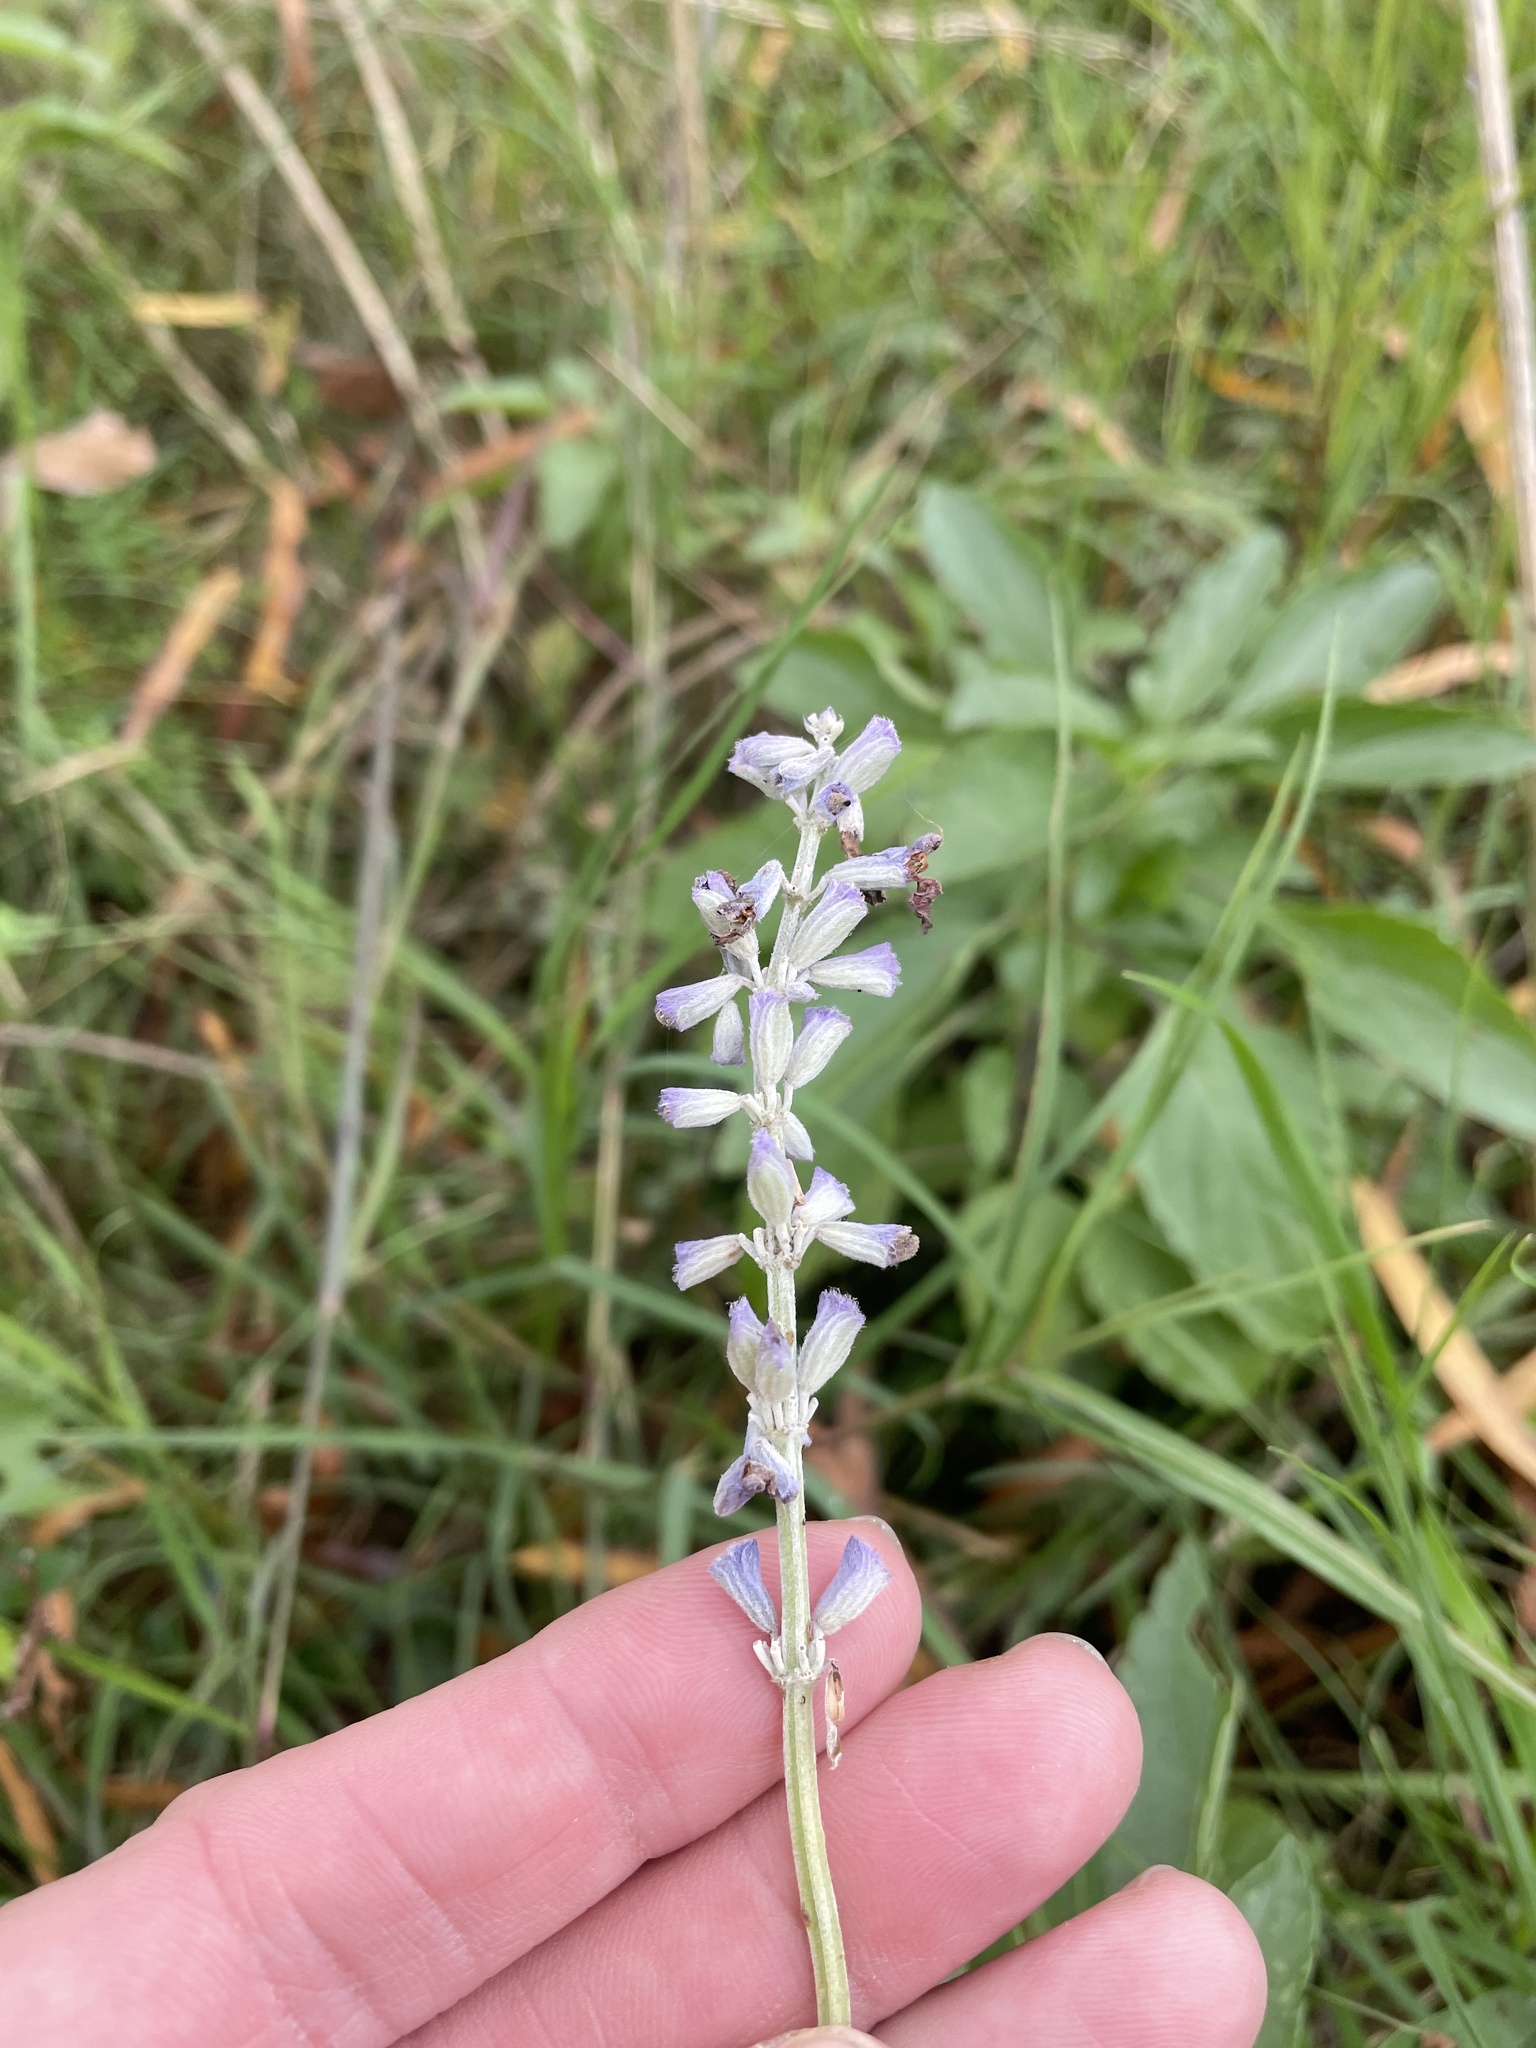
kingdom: Plantae
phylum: Tracheophyta
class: Magnoliopsida
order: Lamiales
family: Lamiaceae
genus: Salvia
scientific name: Salvia farinacea
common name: Mealy sage
